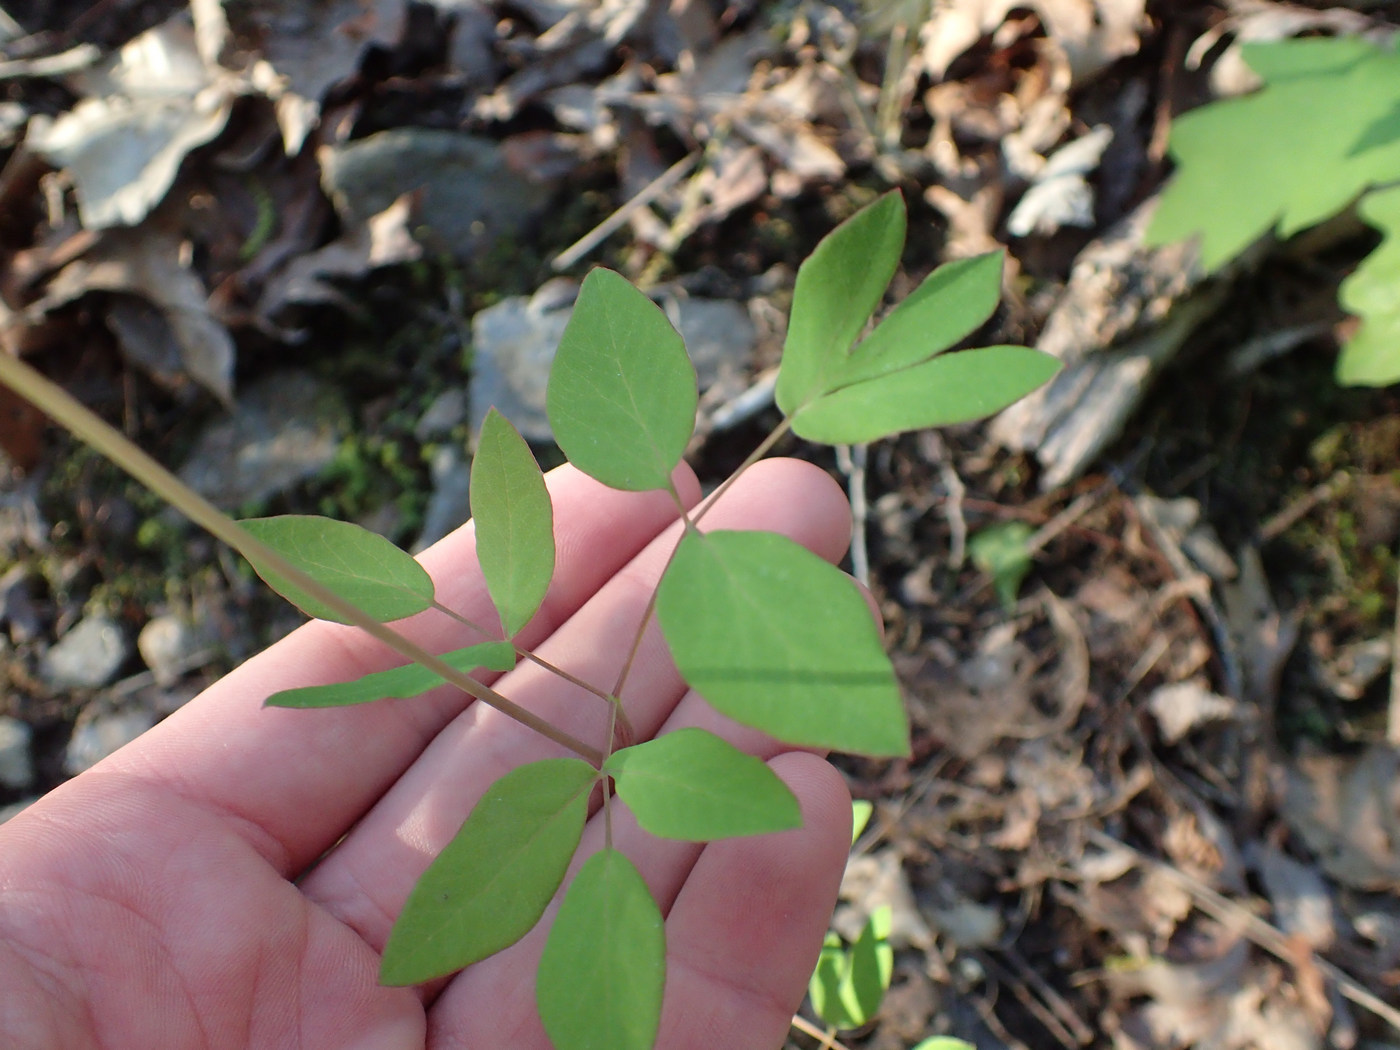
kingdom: Plantae
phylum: Tracheophyta
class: Magnoliopsida
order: Apiales
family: Apiaceae
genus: Taenidia
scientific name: Taenidia integerrima
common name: Golden alexander
